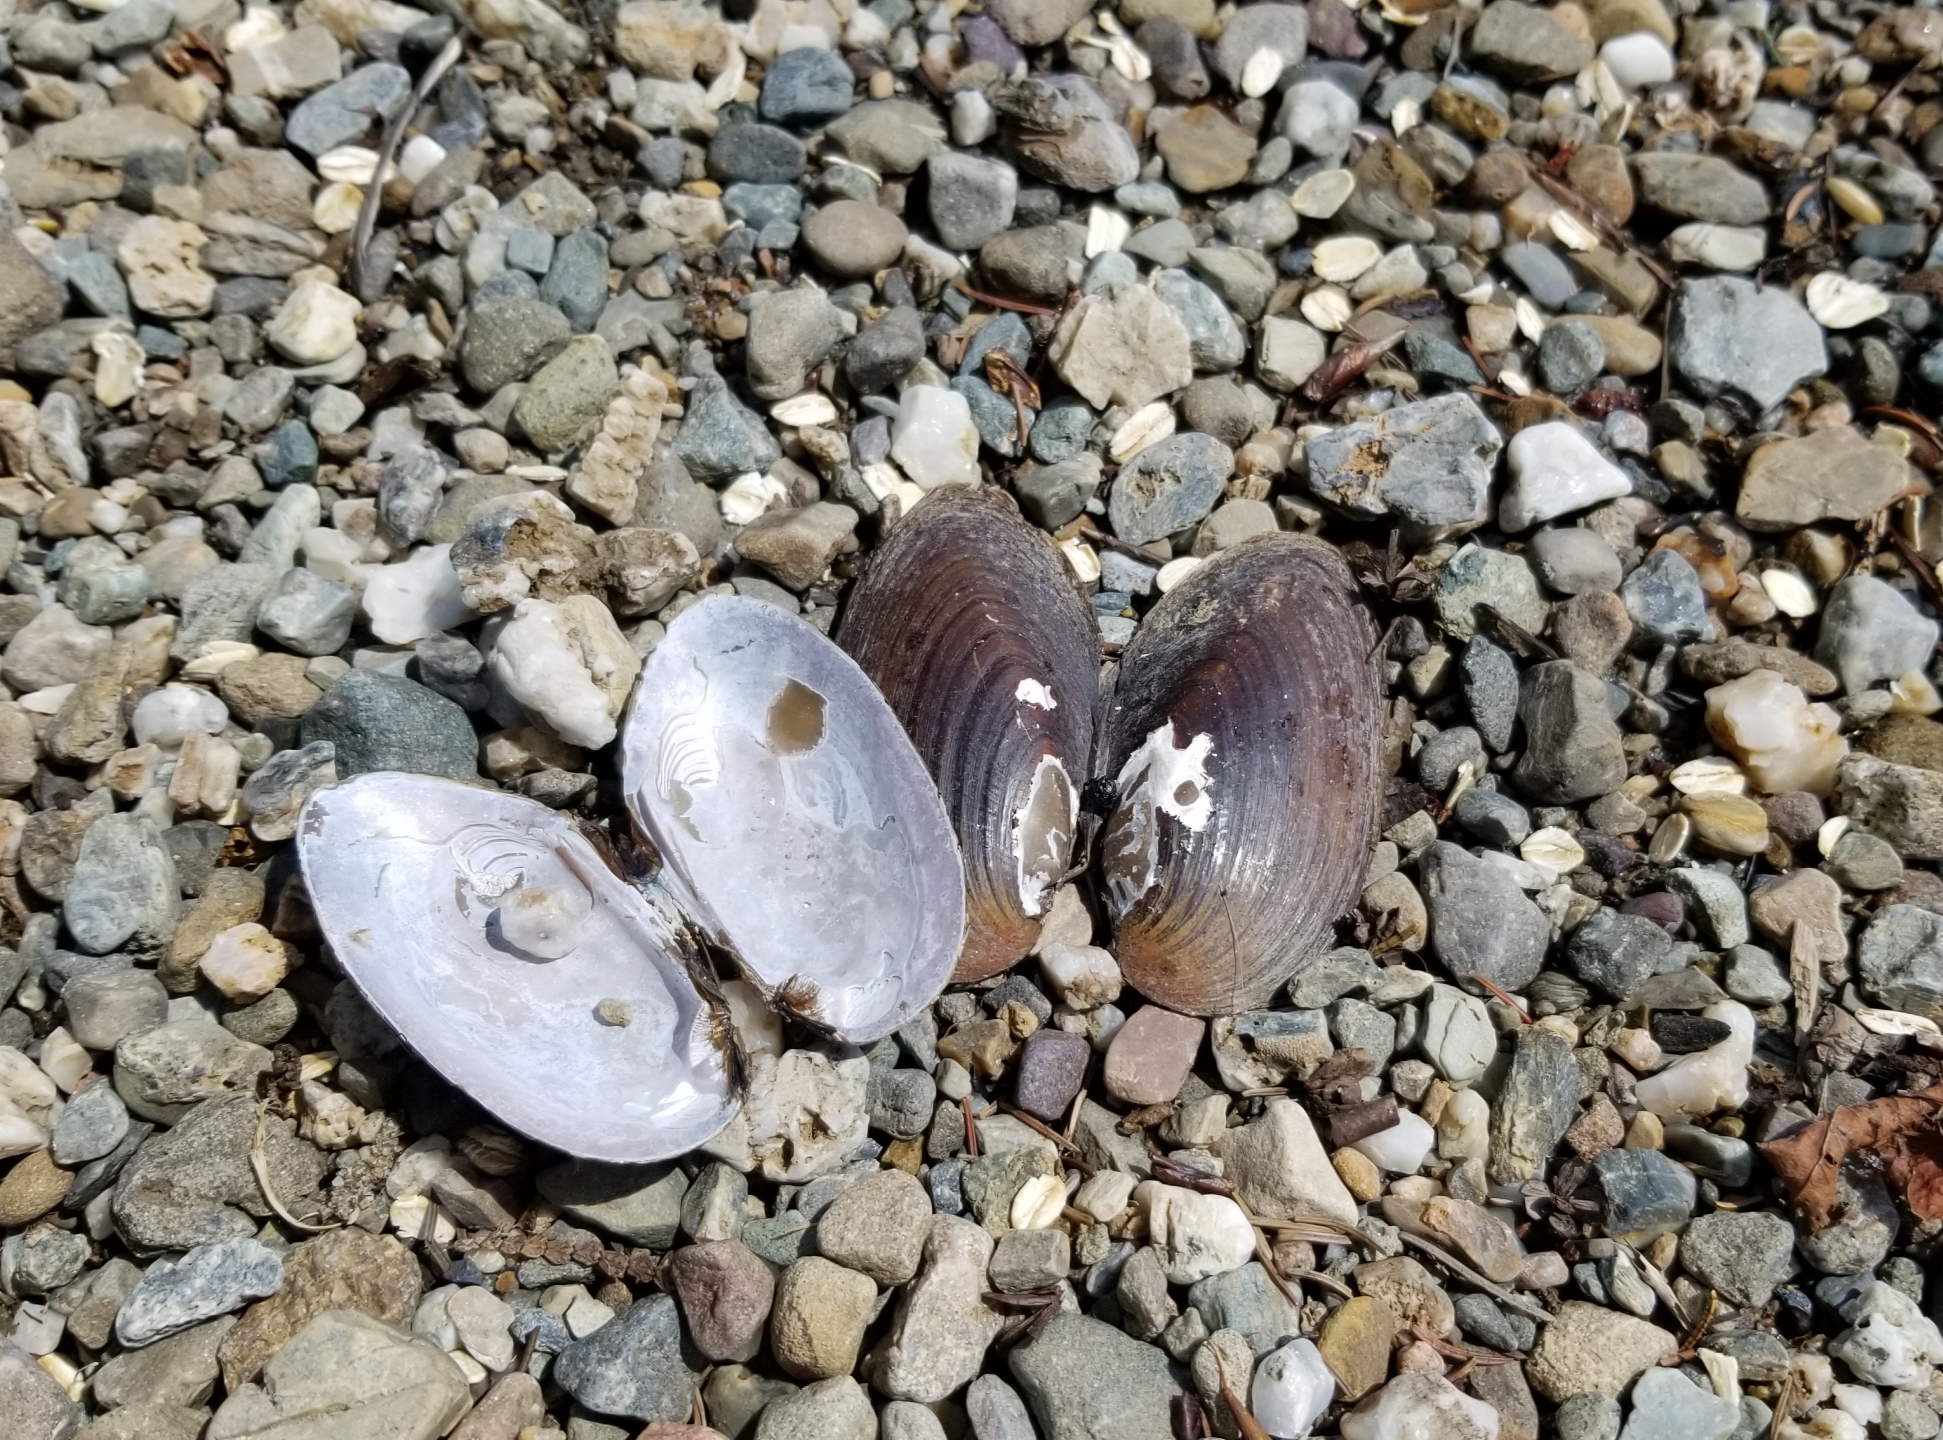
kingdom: Animalia
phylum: Mollusca
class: Bivalvia
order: Unionida
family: Unionidae
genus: Elliptio
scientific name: Elliptio complanata
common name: Eastern elliptio
